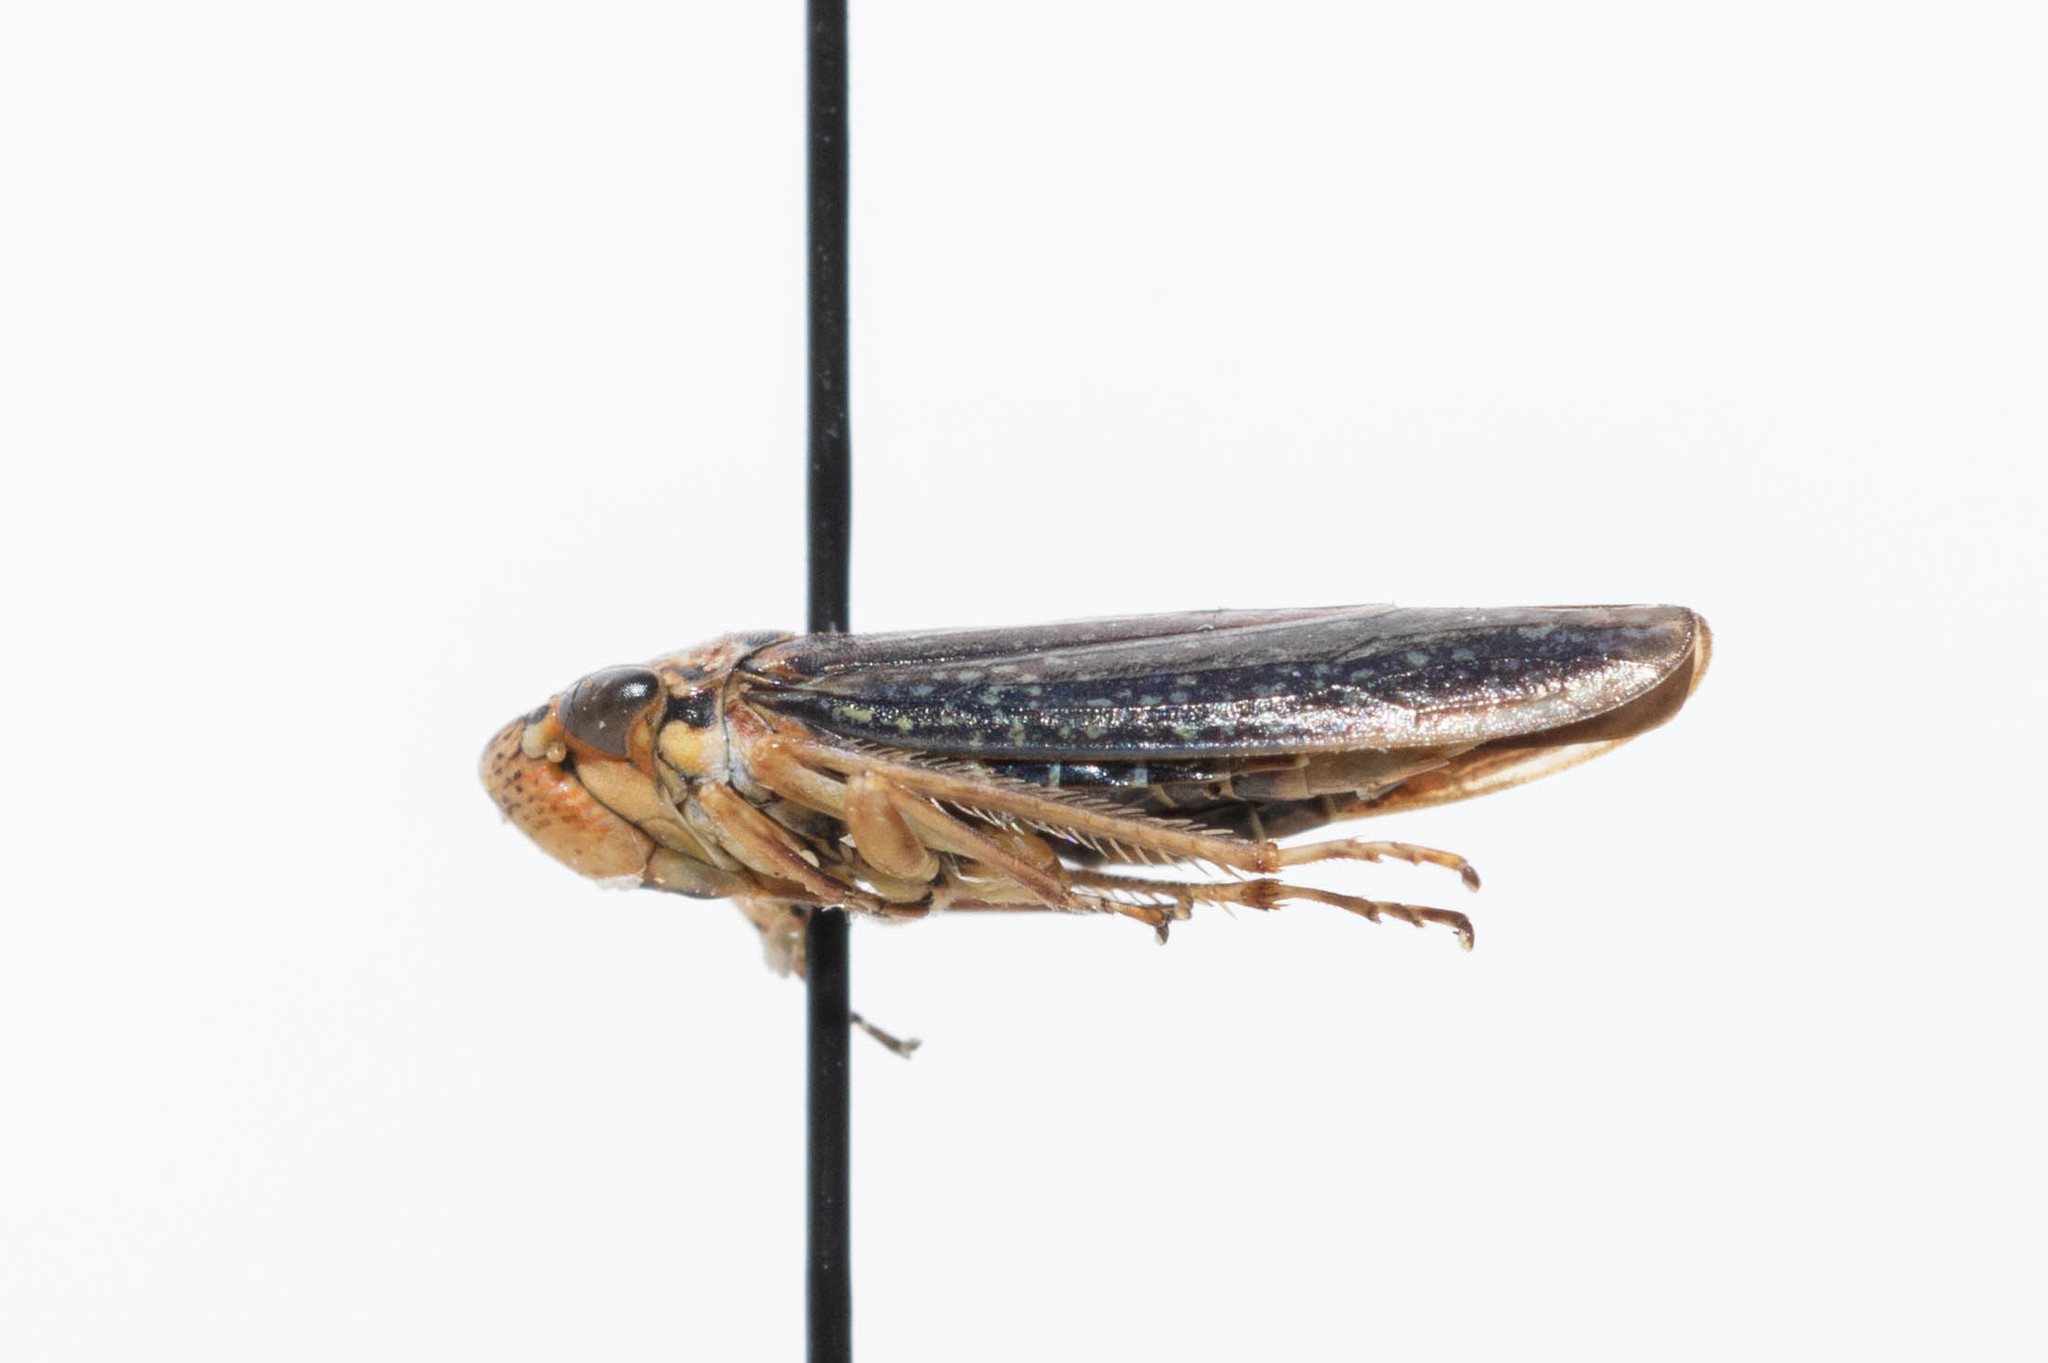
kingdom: Animalia
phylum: Arthropoda
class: Insecta
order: Hemiptera
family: Cicadellidae
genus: Graphocephala
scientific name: Graphocephala confluens
